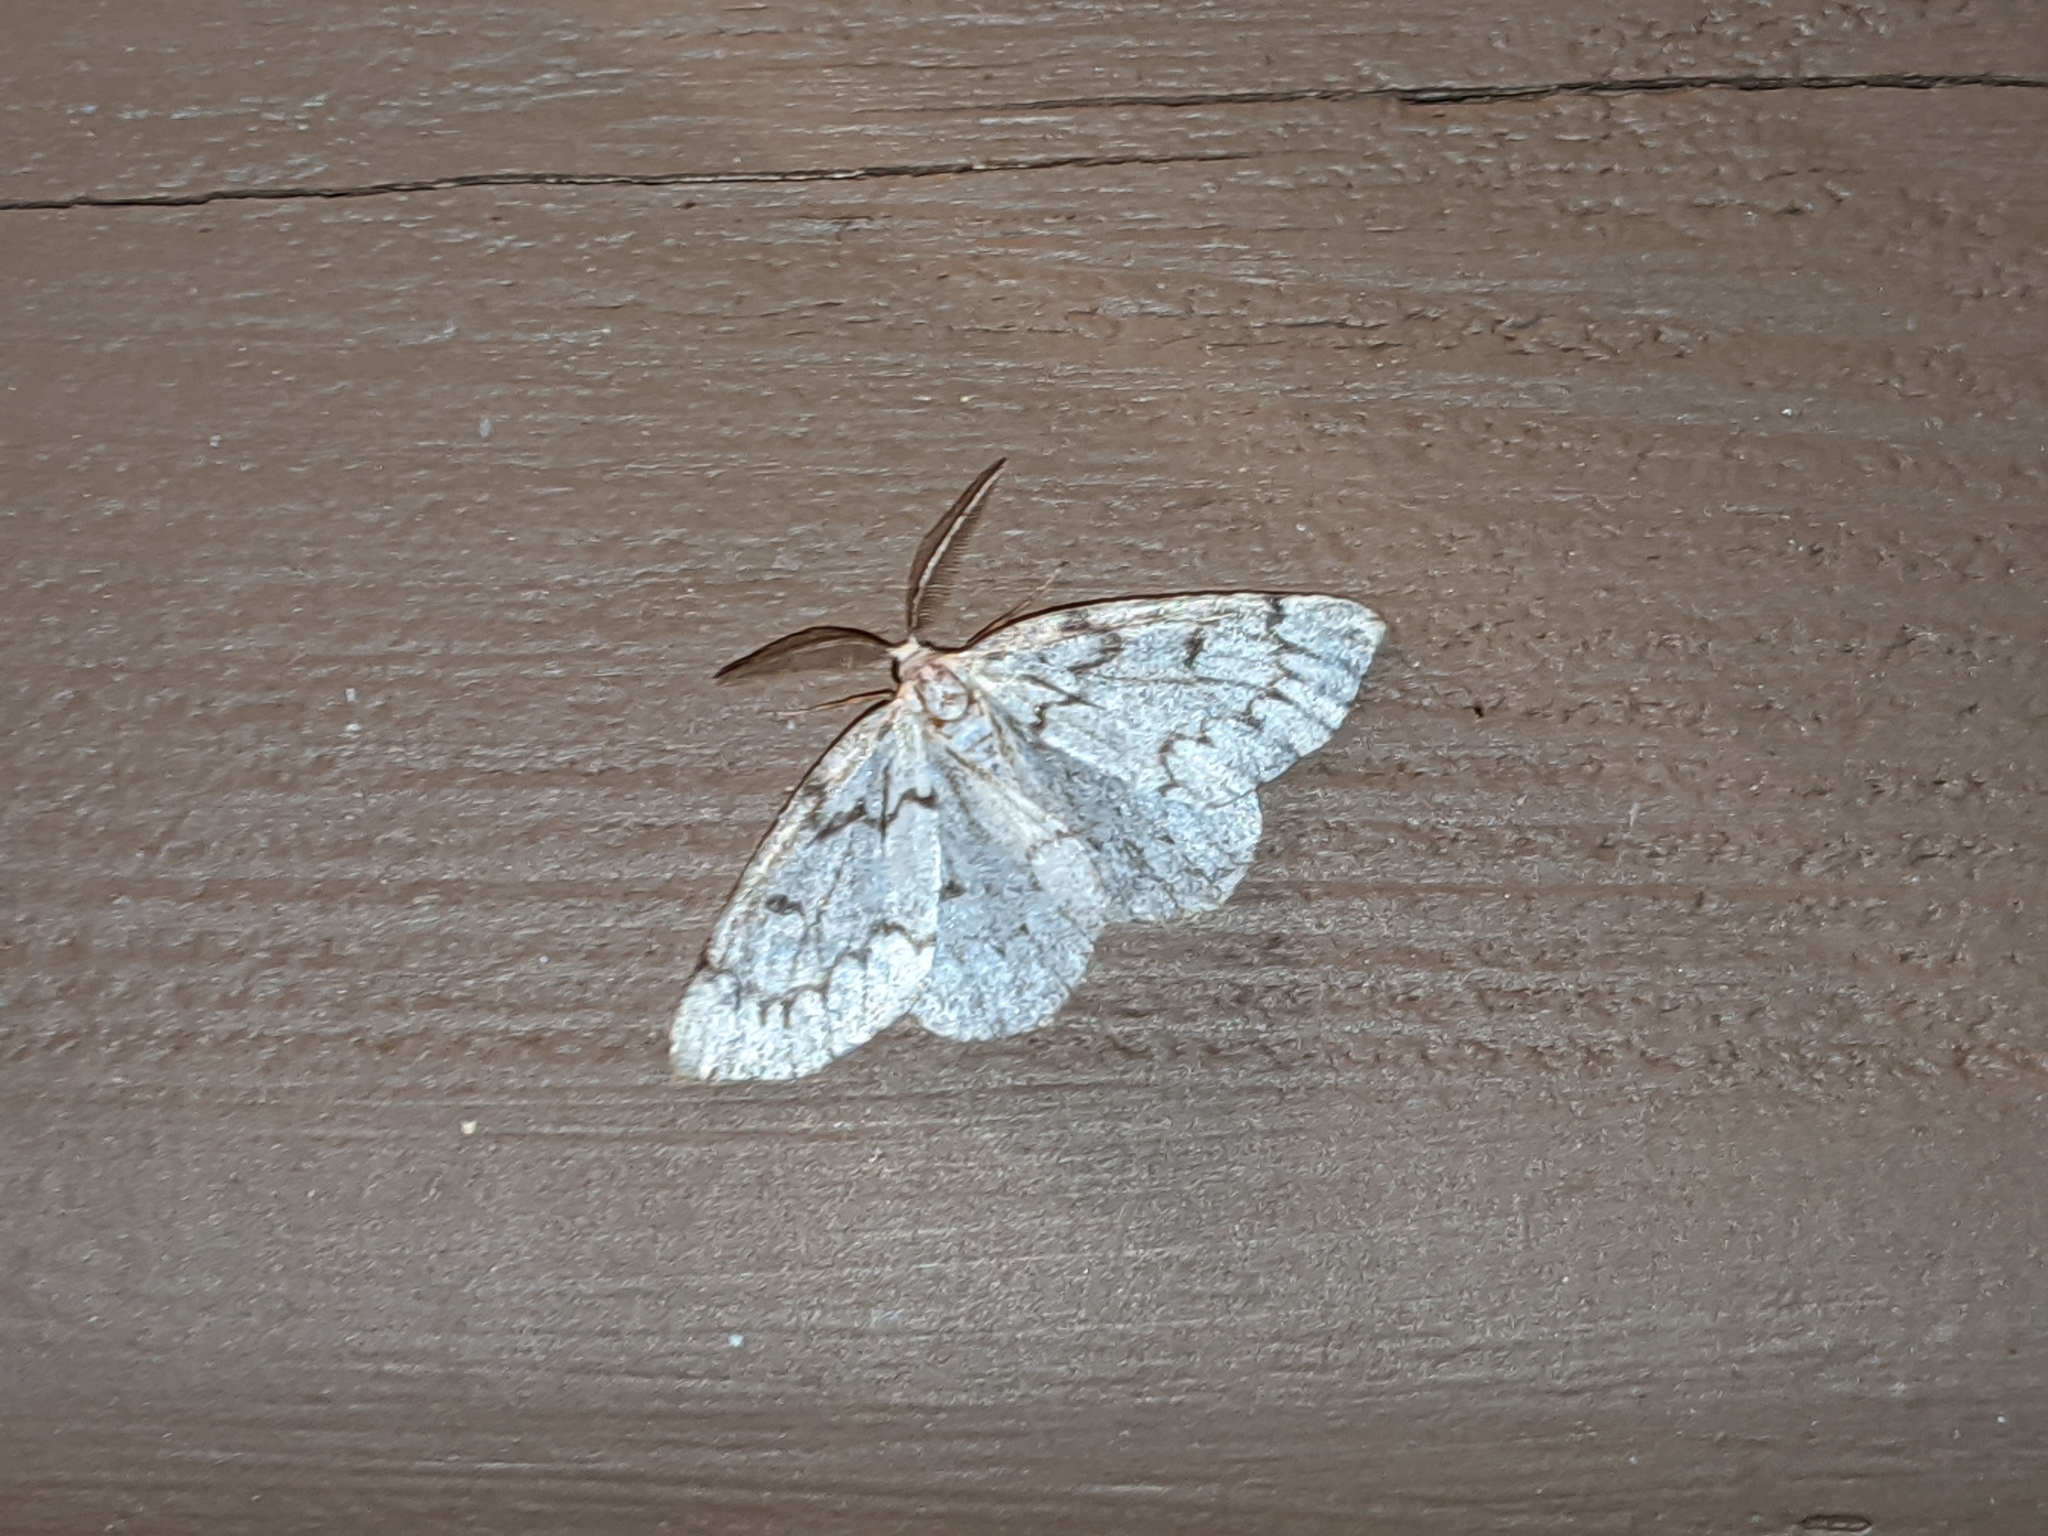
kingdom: Animalia
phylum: Arthropoda
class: Insecta
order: Lepidoptera
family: Geometridae
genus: Nepytia
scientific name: Nepytia canosaria
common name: False hemlock looper
